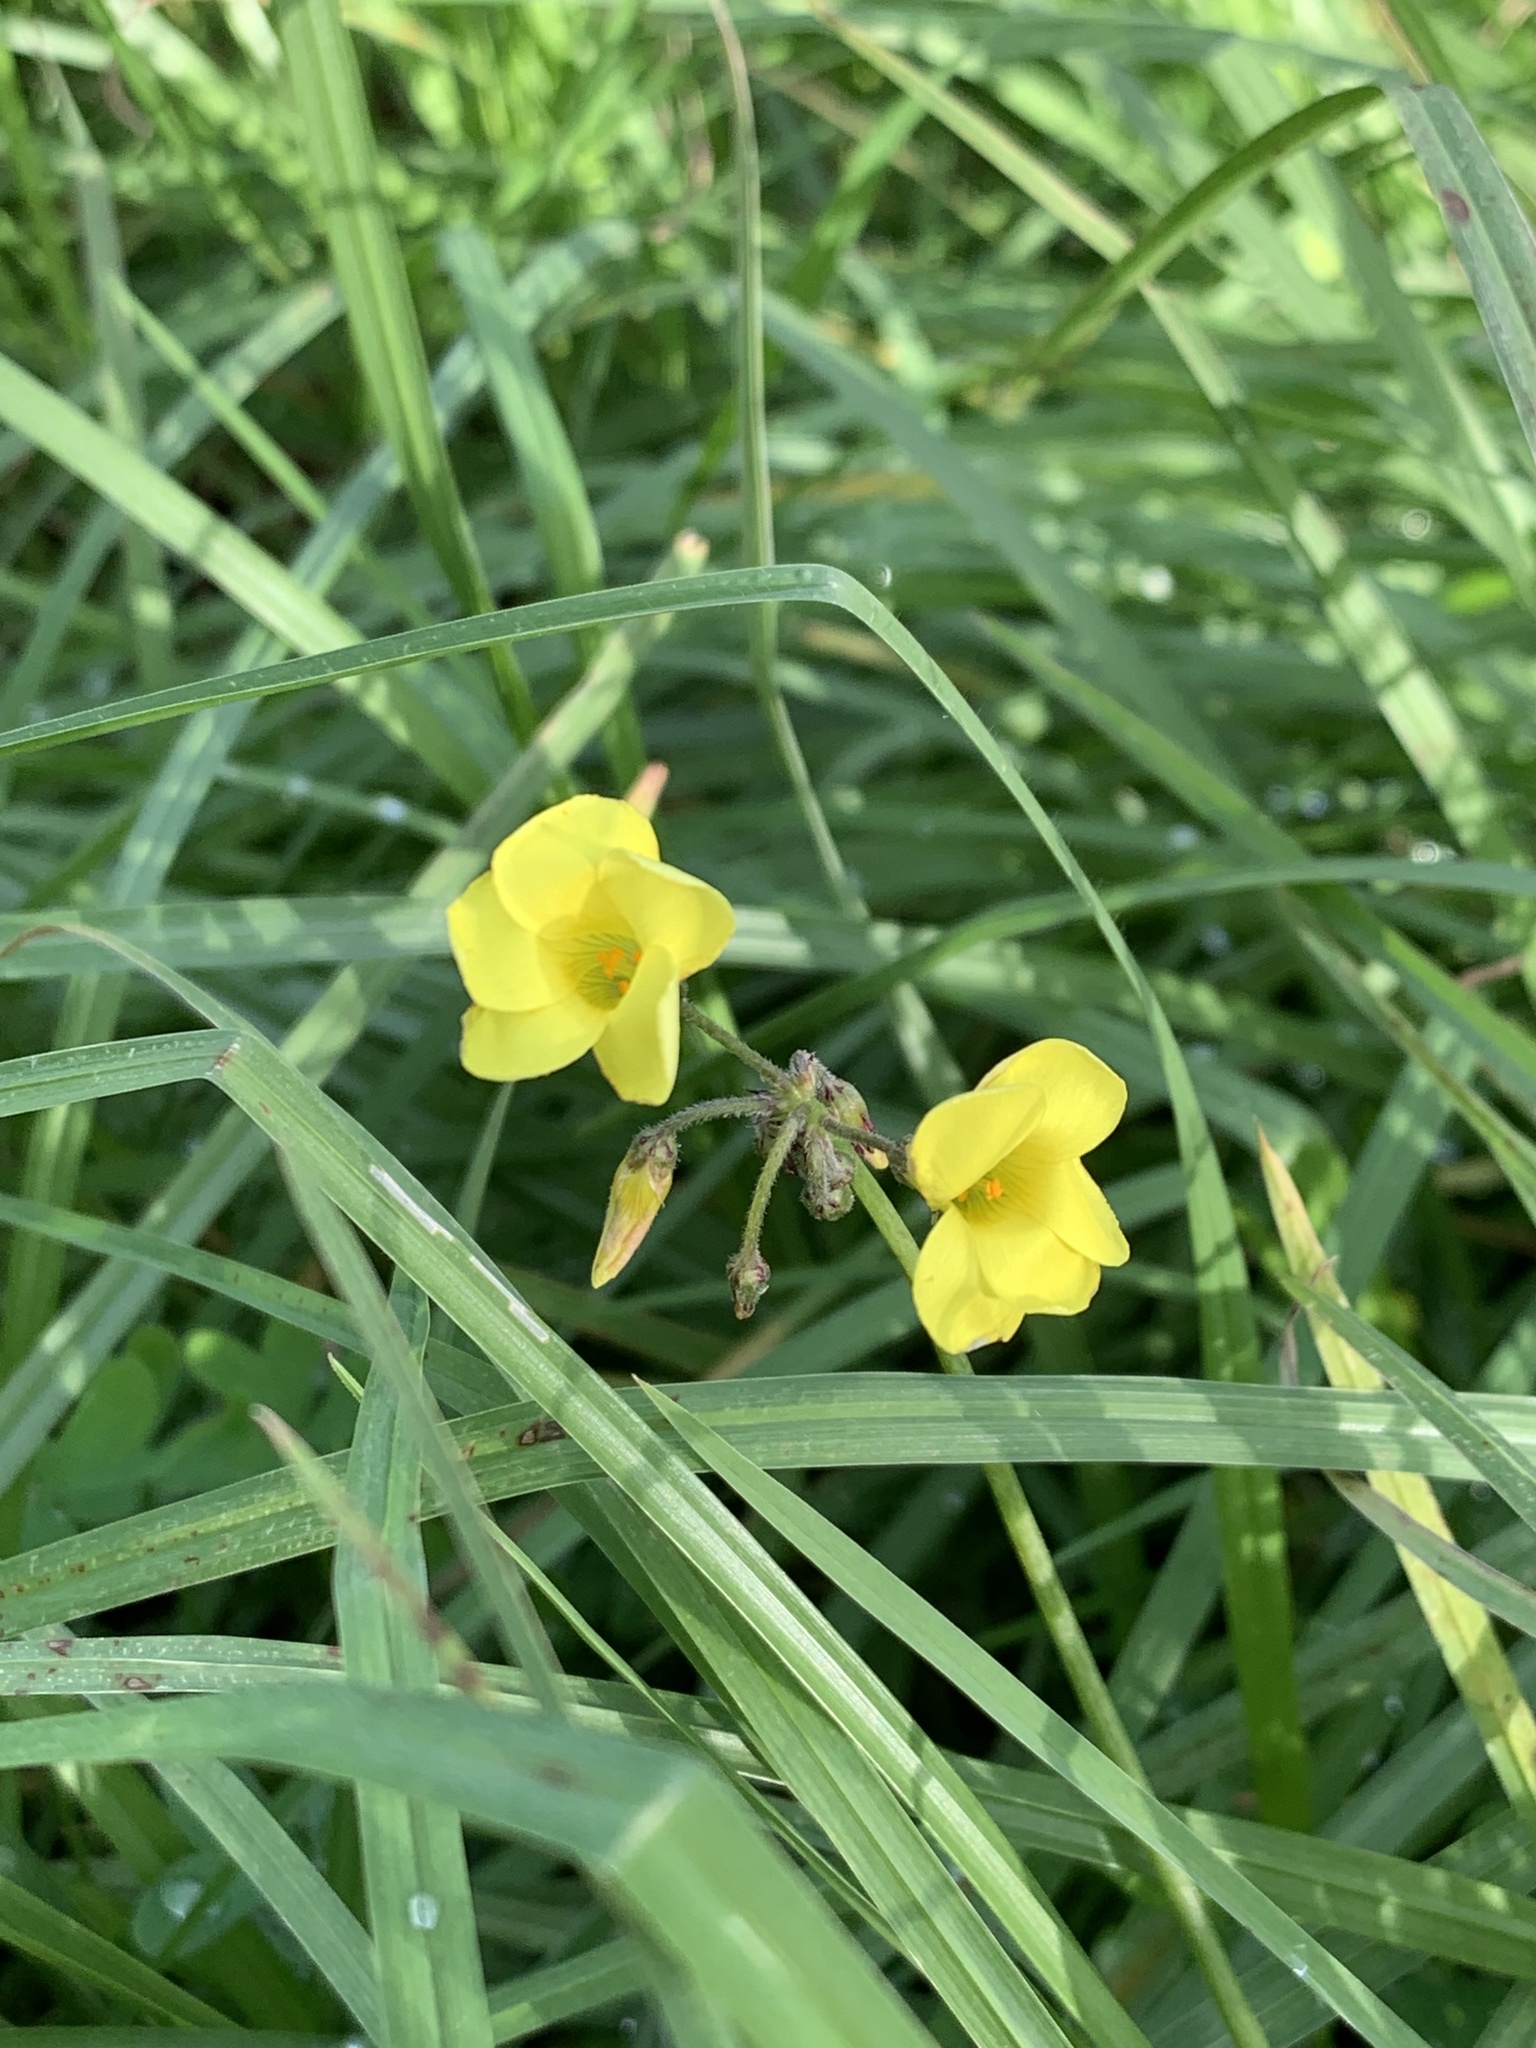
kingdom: Plantae
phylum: Tracheophyta
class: Magnoliopsida
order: Oxalidales
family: Oxalidaceae
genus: Oxalis
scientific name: Oxalis pes-caprae
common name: Bermuda-buttercup
